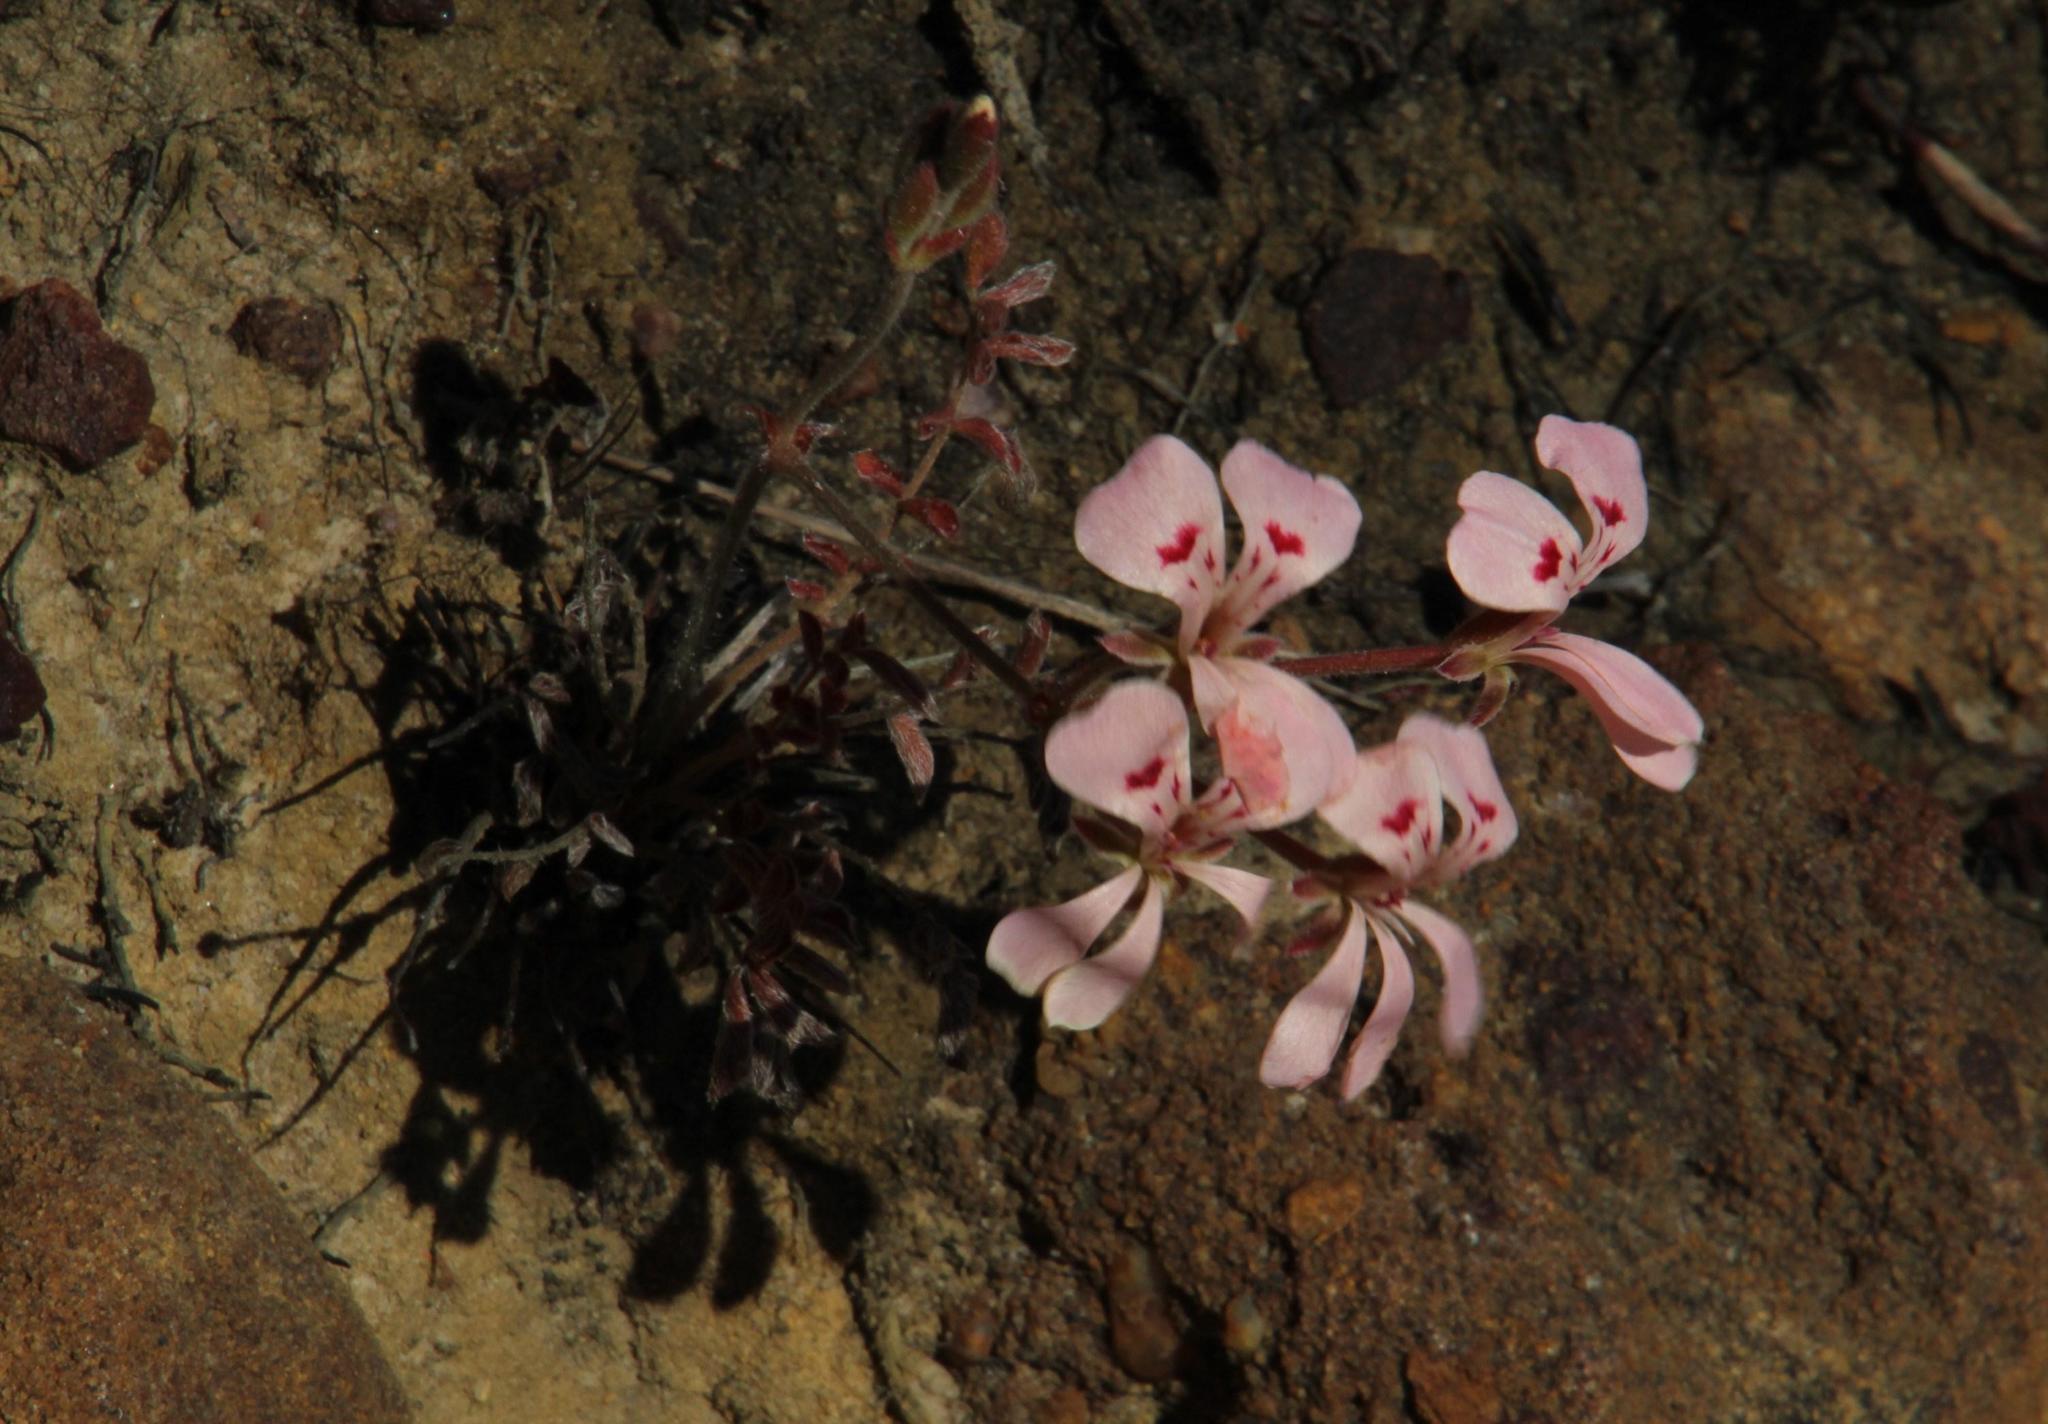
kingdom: Plantae
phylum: Tracheophyta
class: Magnoliopsida
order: Geraniales
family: Geraniaceae
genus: Pelargonium
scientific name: Pelargonium pinnatum
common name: Pinnated pelargonium
